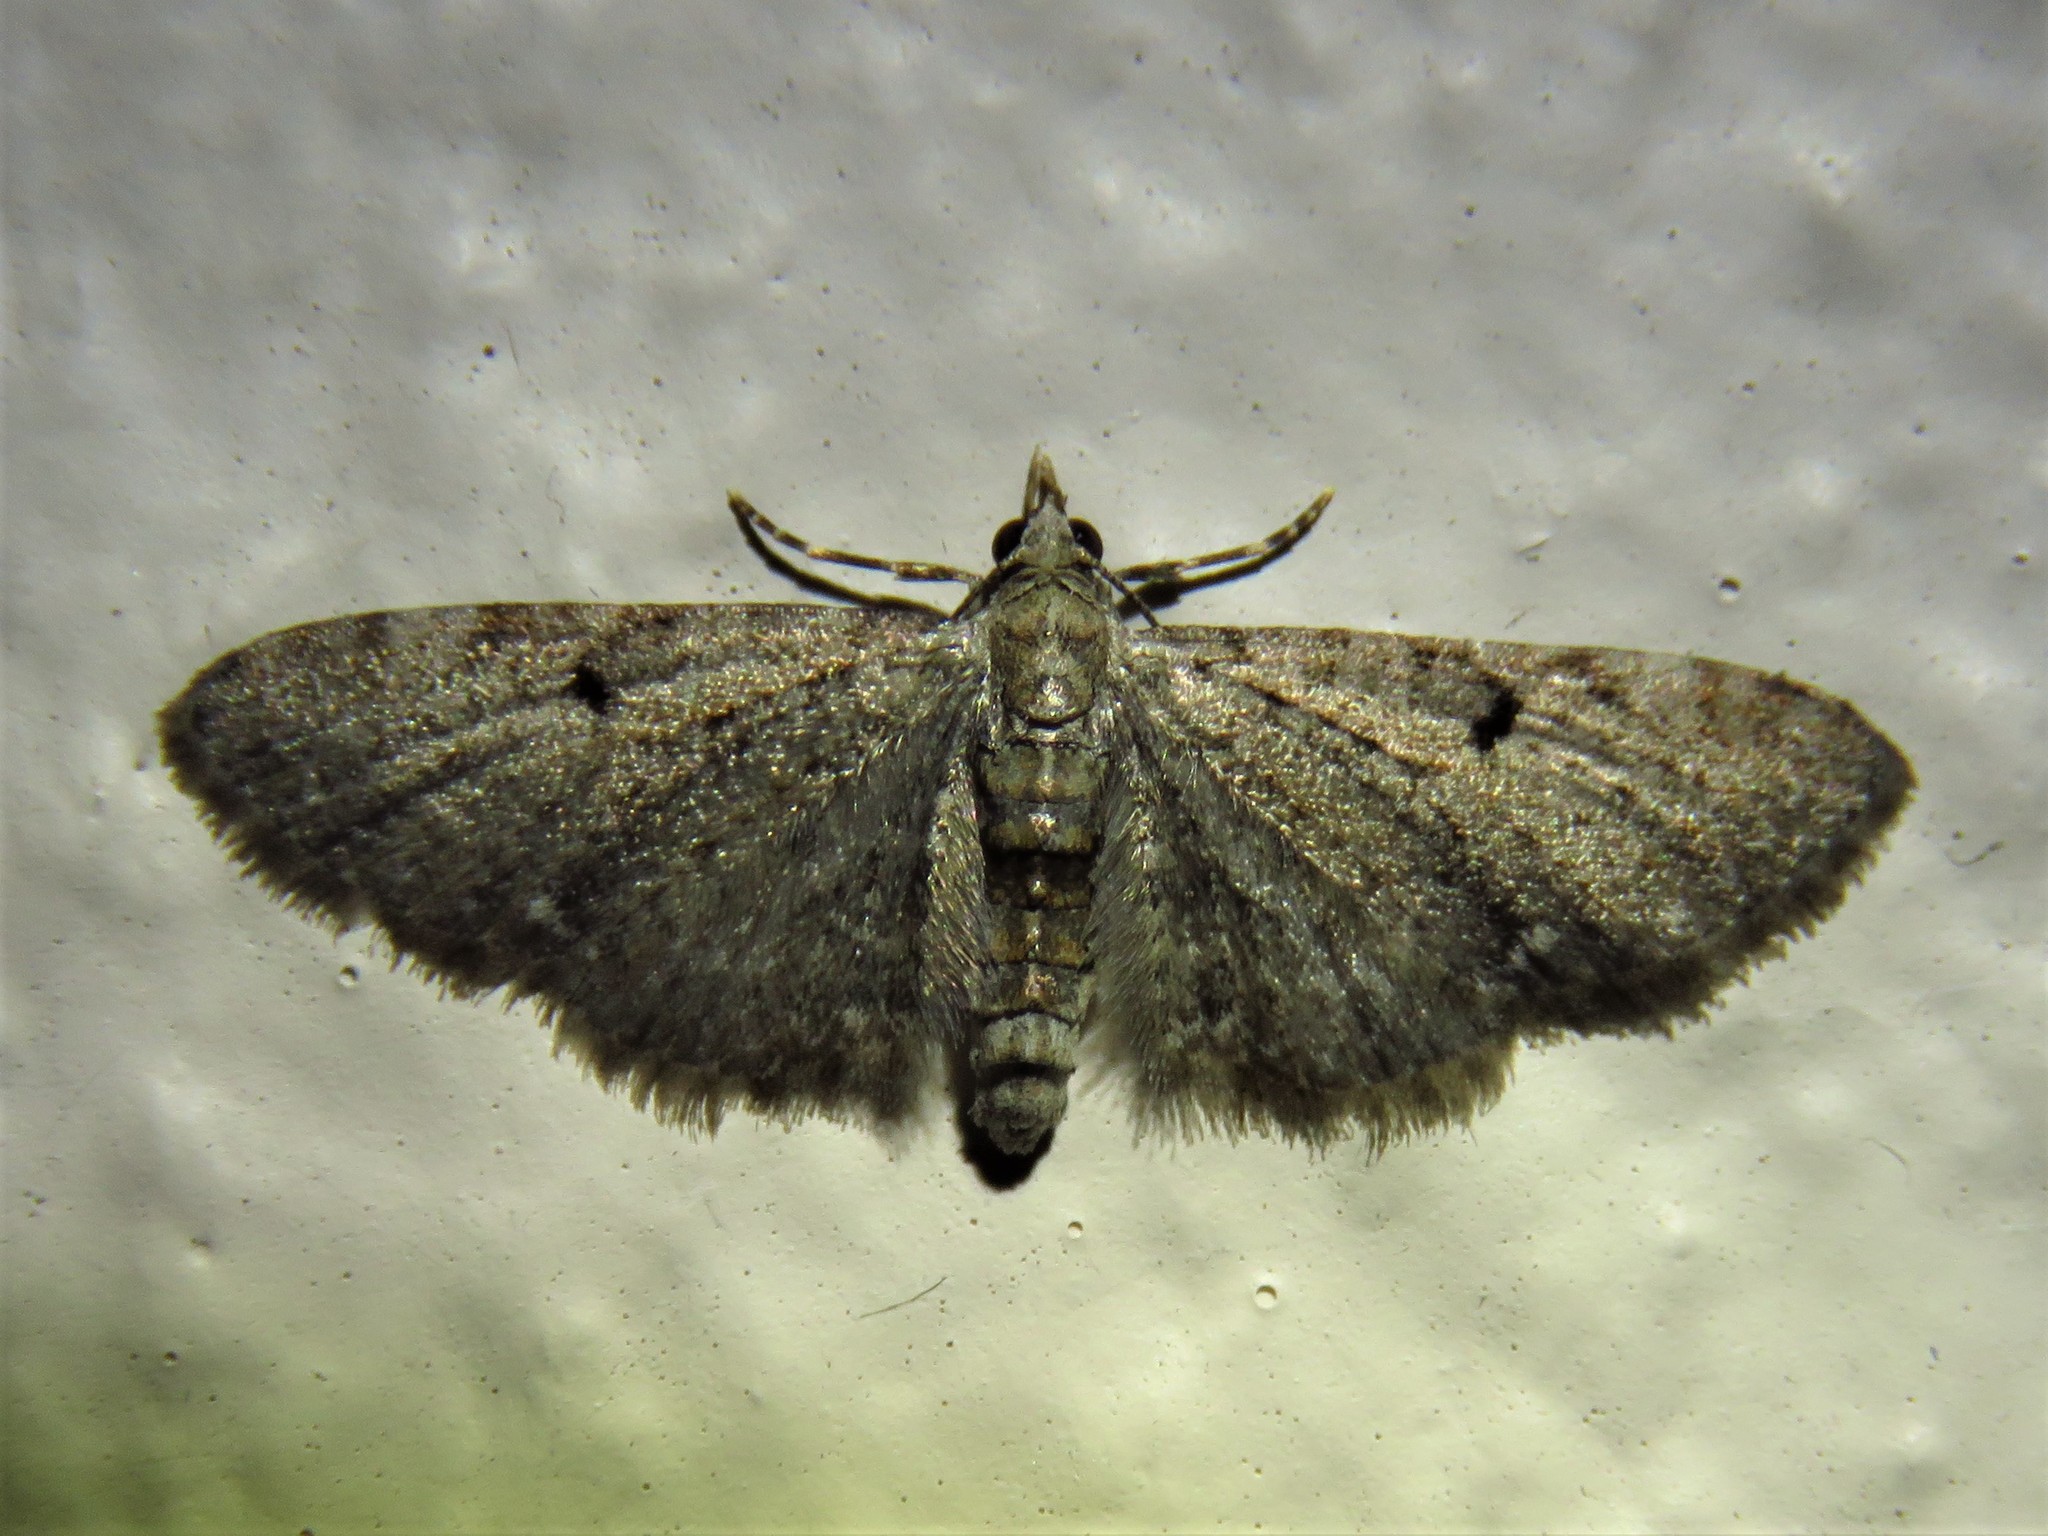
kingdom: Animalia
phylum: Arthropoda
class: Insecta
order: Lepidoptera
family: Geometridae
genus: Eupithecia
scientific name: Eupithecia miserulata
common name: Common eupithecia
